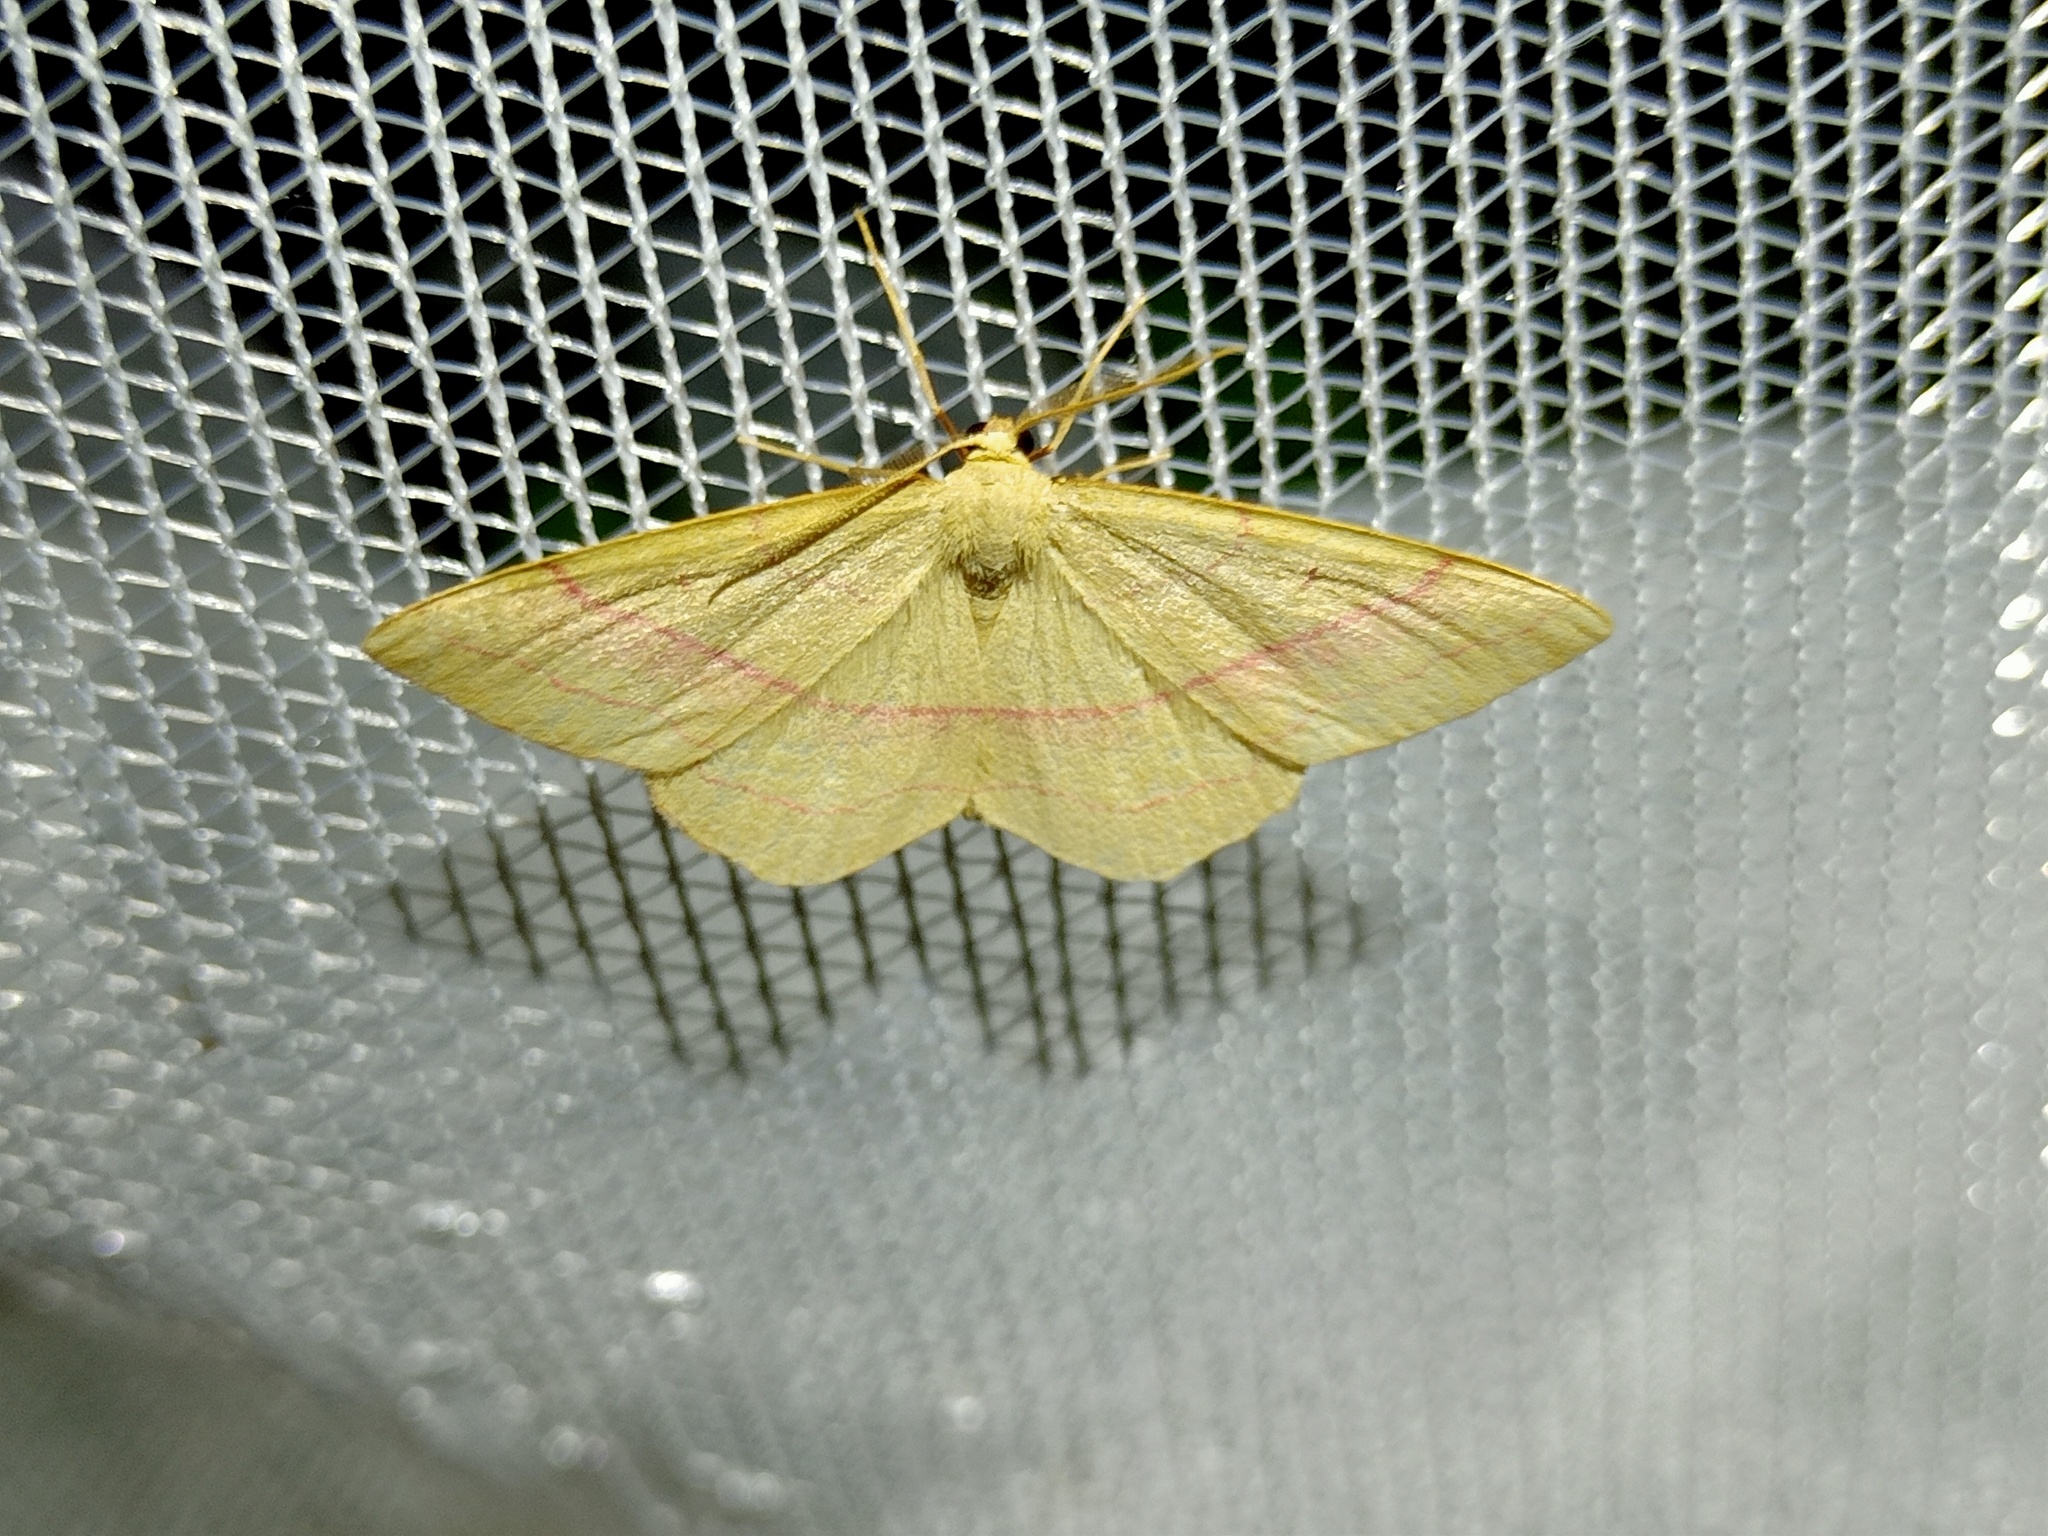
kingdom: Animalia
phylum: Arthropoda
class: Insecta
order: Lepidoptera
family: Geometridae
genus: Rhodostrophia
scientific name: Rhodostrophia vibicaria
